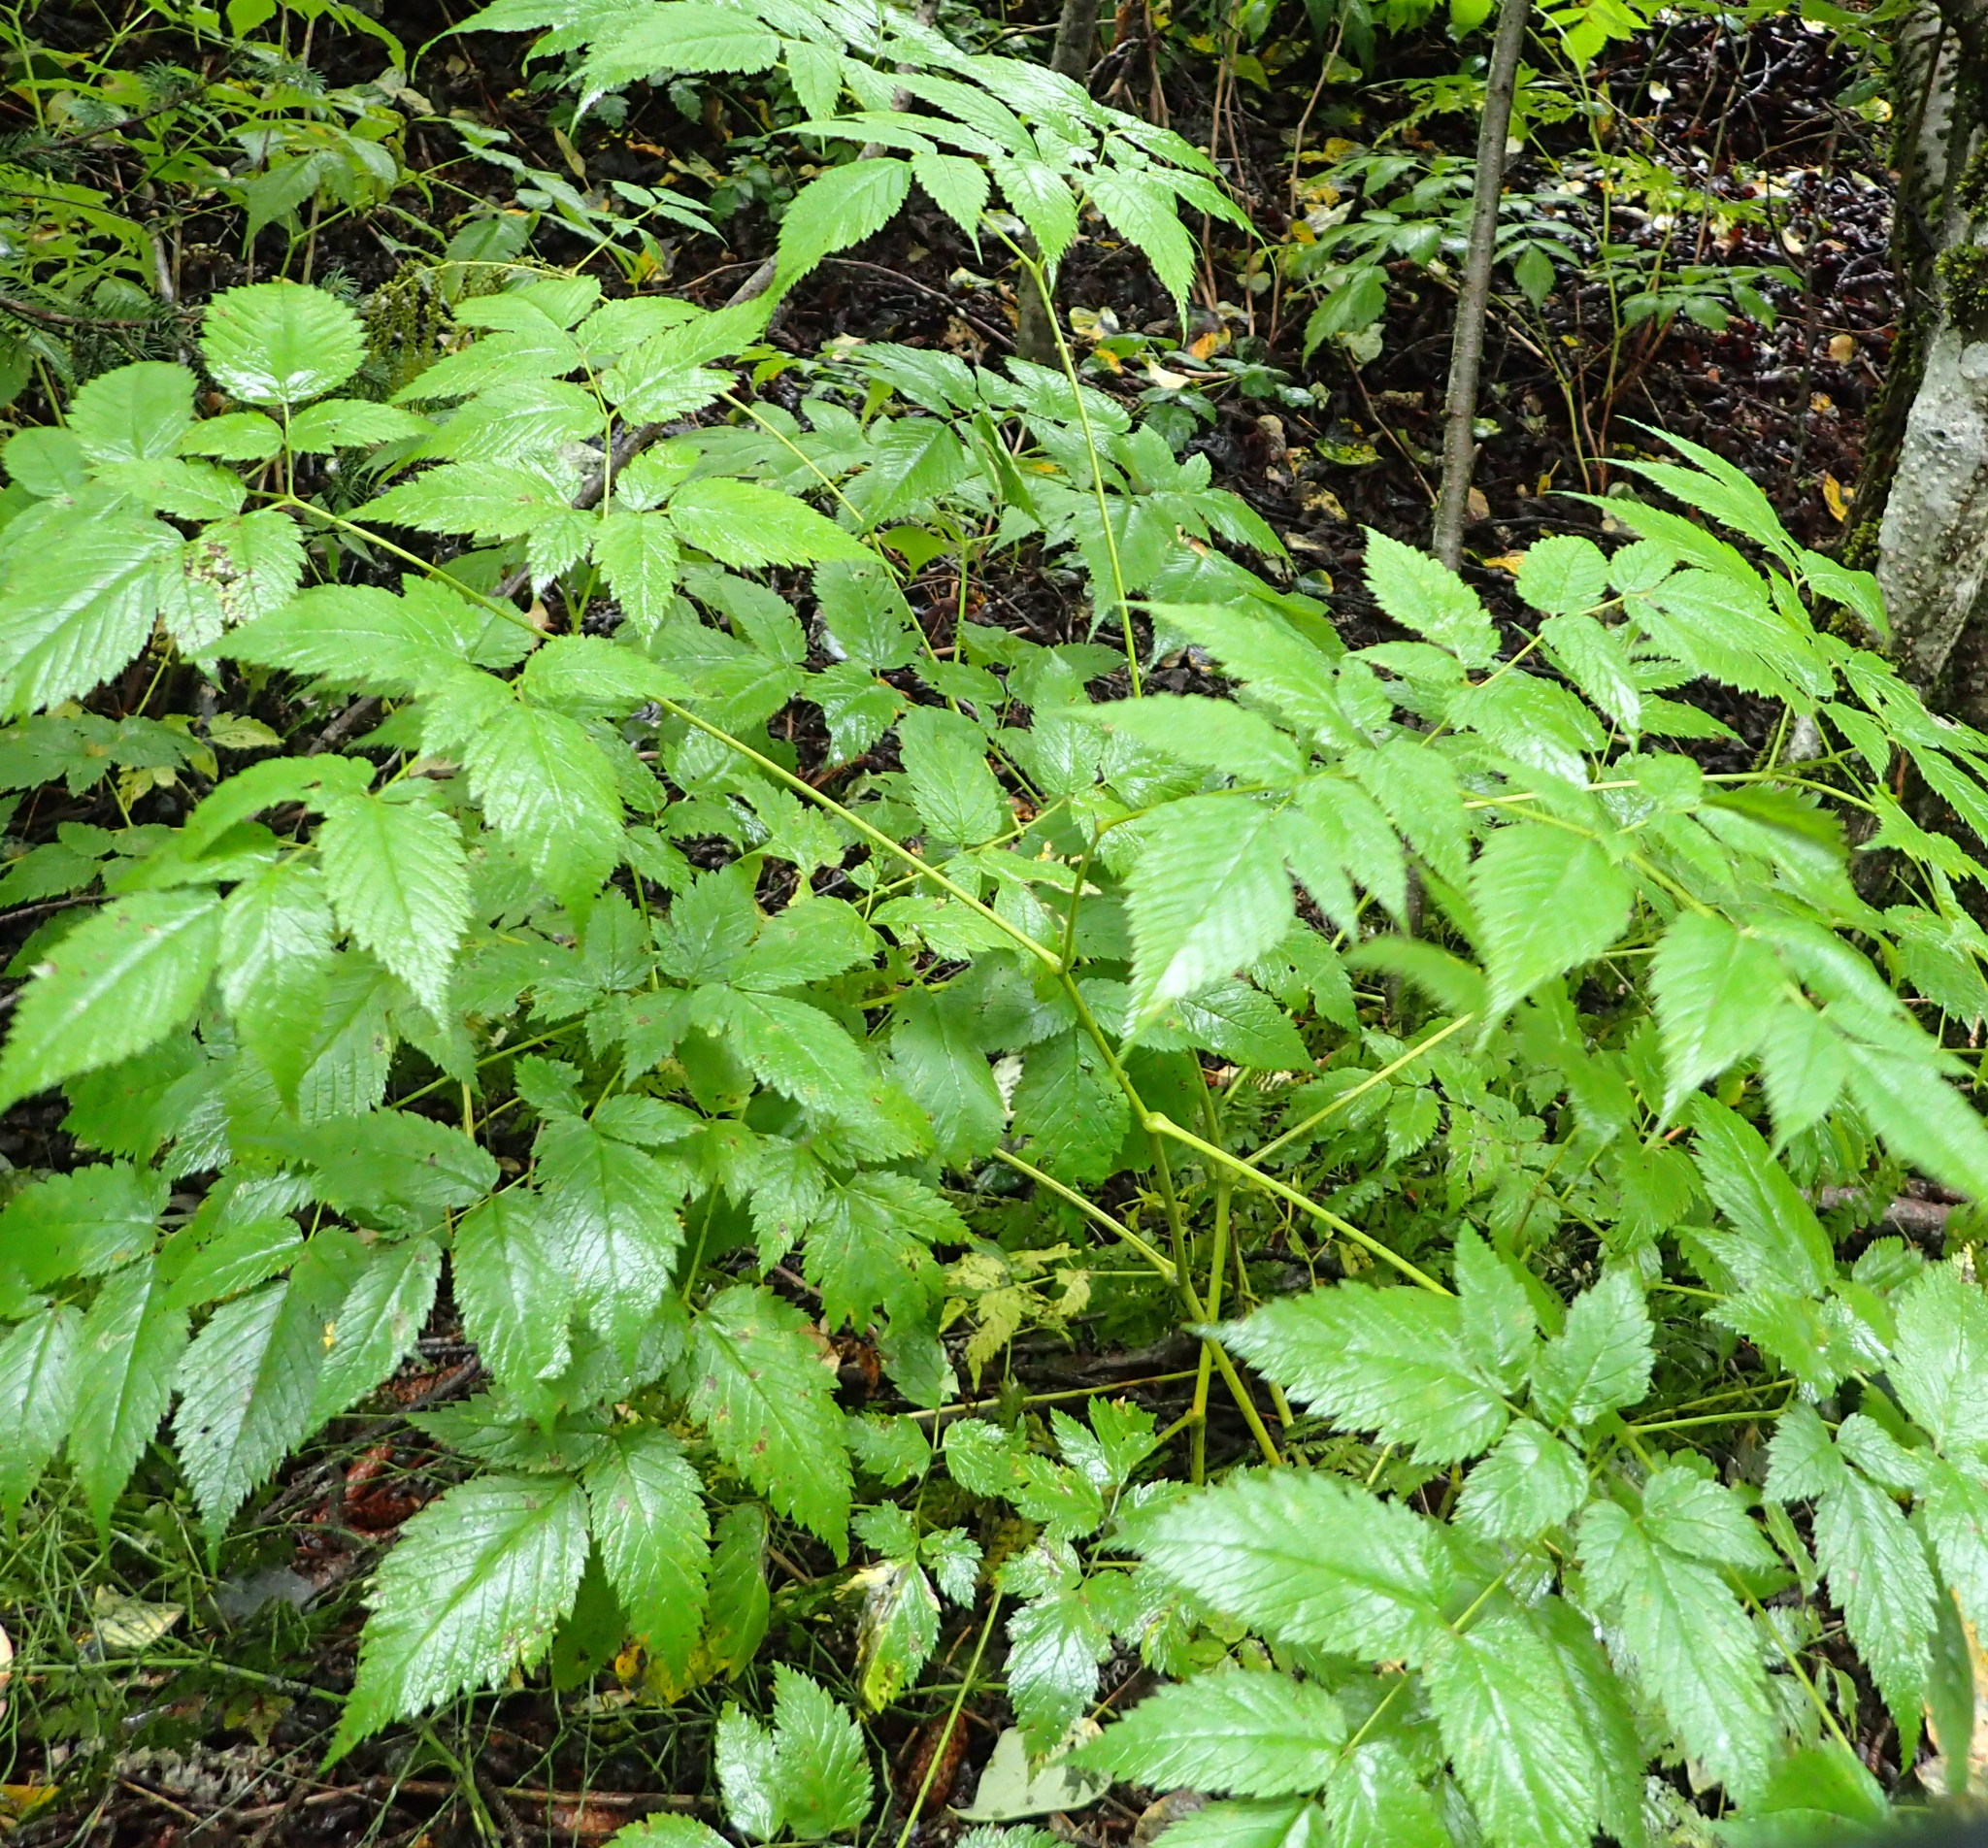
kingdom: Plantae
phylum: Tracheophyta
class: Magnoliopsida
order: Rosales
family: Rosaceae
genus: Aruncus
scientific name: Aruncus dioicus
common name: Buck's-beard
